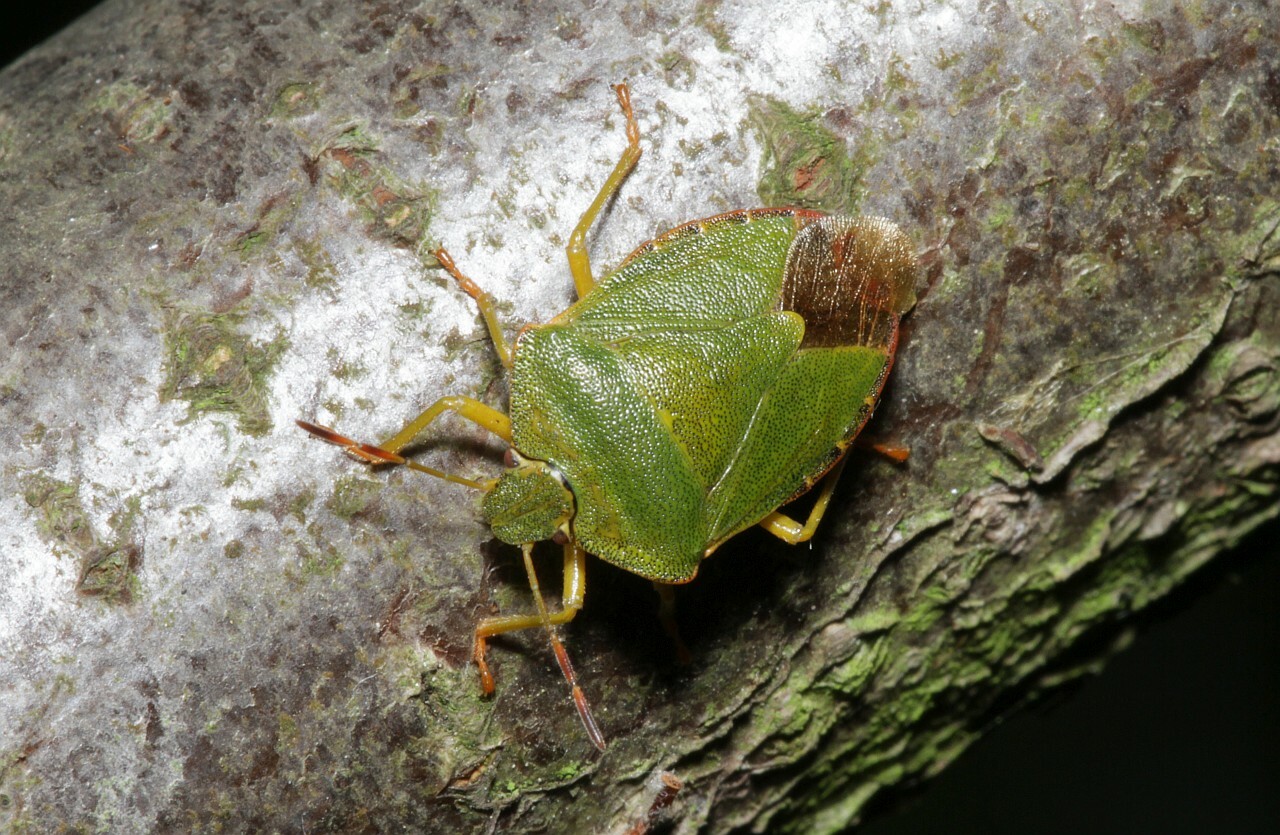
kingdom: Animalia
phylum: Arthropoda
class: Insecta
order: Hemiptera
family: Pentatomidae
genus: Palomena
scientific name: Palomena prasina
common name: Green shieldbug
